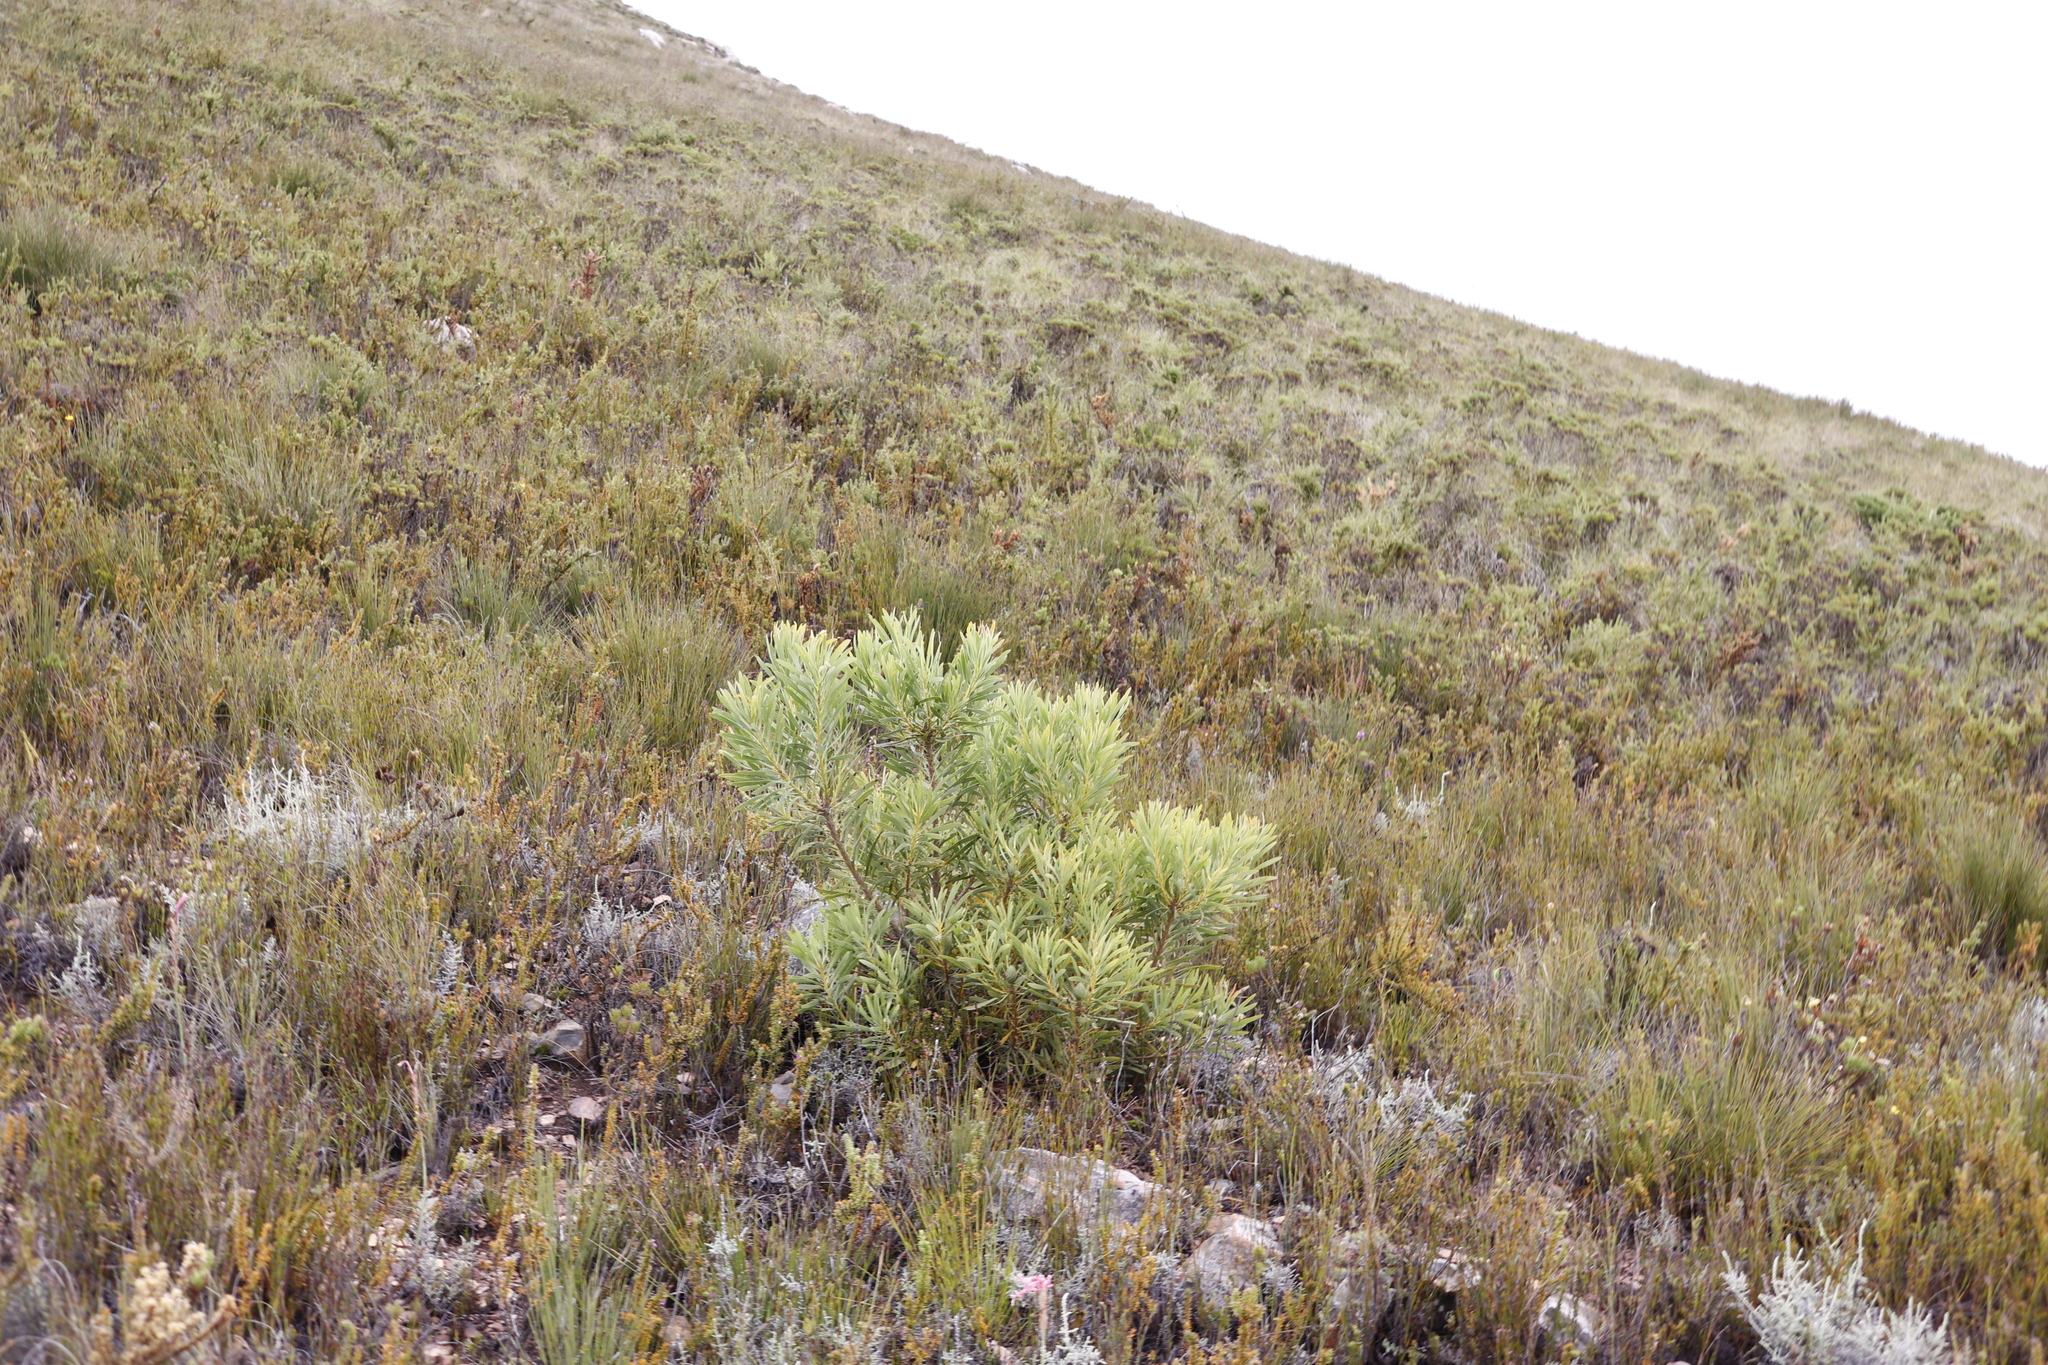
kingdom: Plantae
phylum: Tracheophyta
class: Magnoliopsida
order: Proteales
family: Proteaceae
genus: Protea
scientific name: Protea repens
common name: Sugarbush
